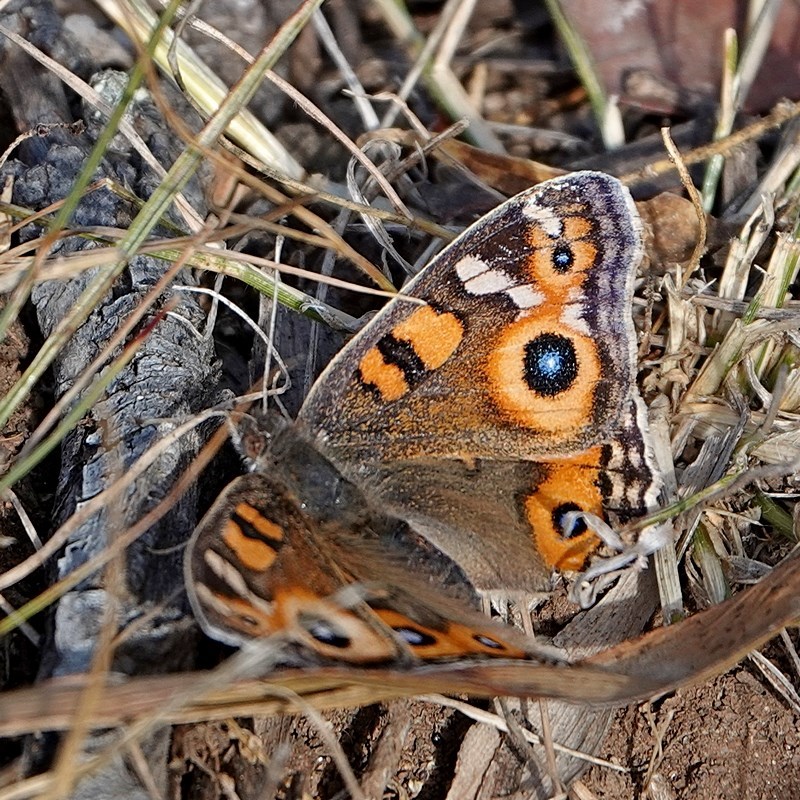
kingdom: Animalia
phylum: Arthropoda
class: Insecta
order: Lepidoptera
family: Nymphalidae
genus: Junonia
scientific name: Junonia villida
